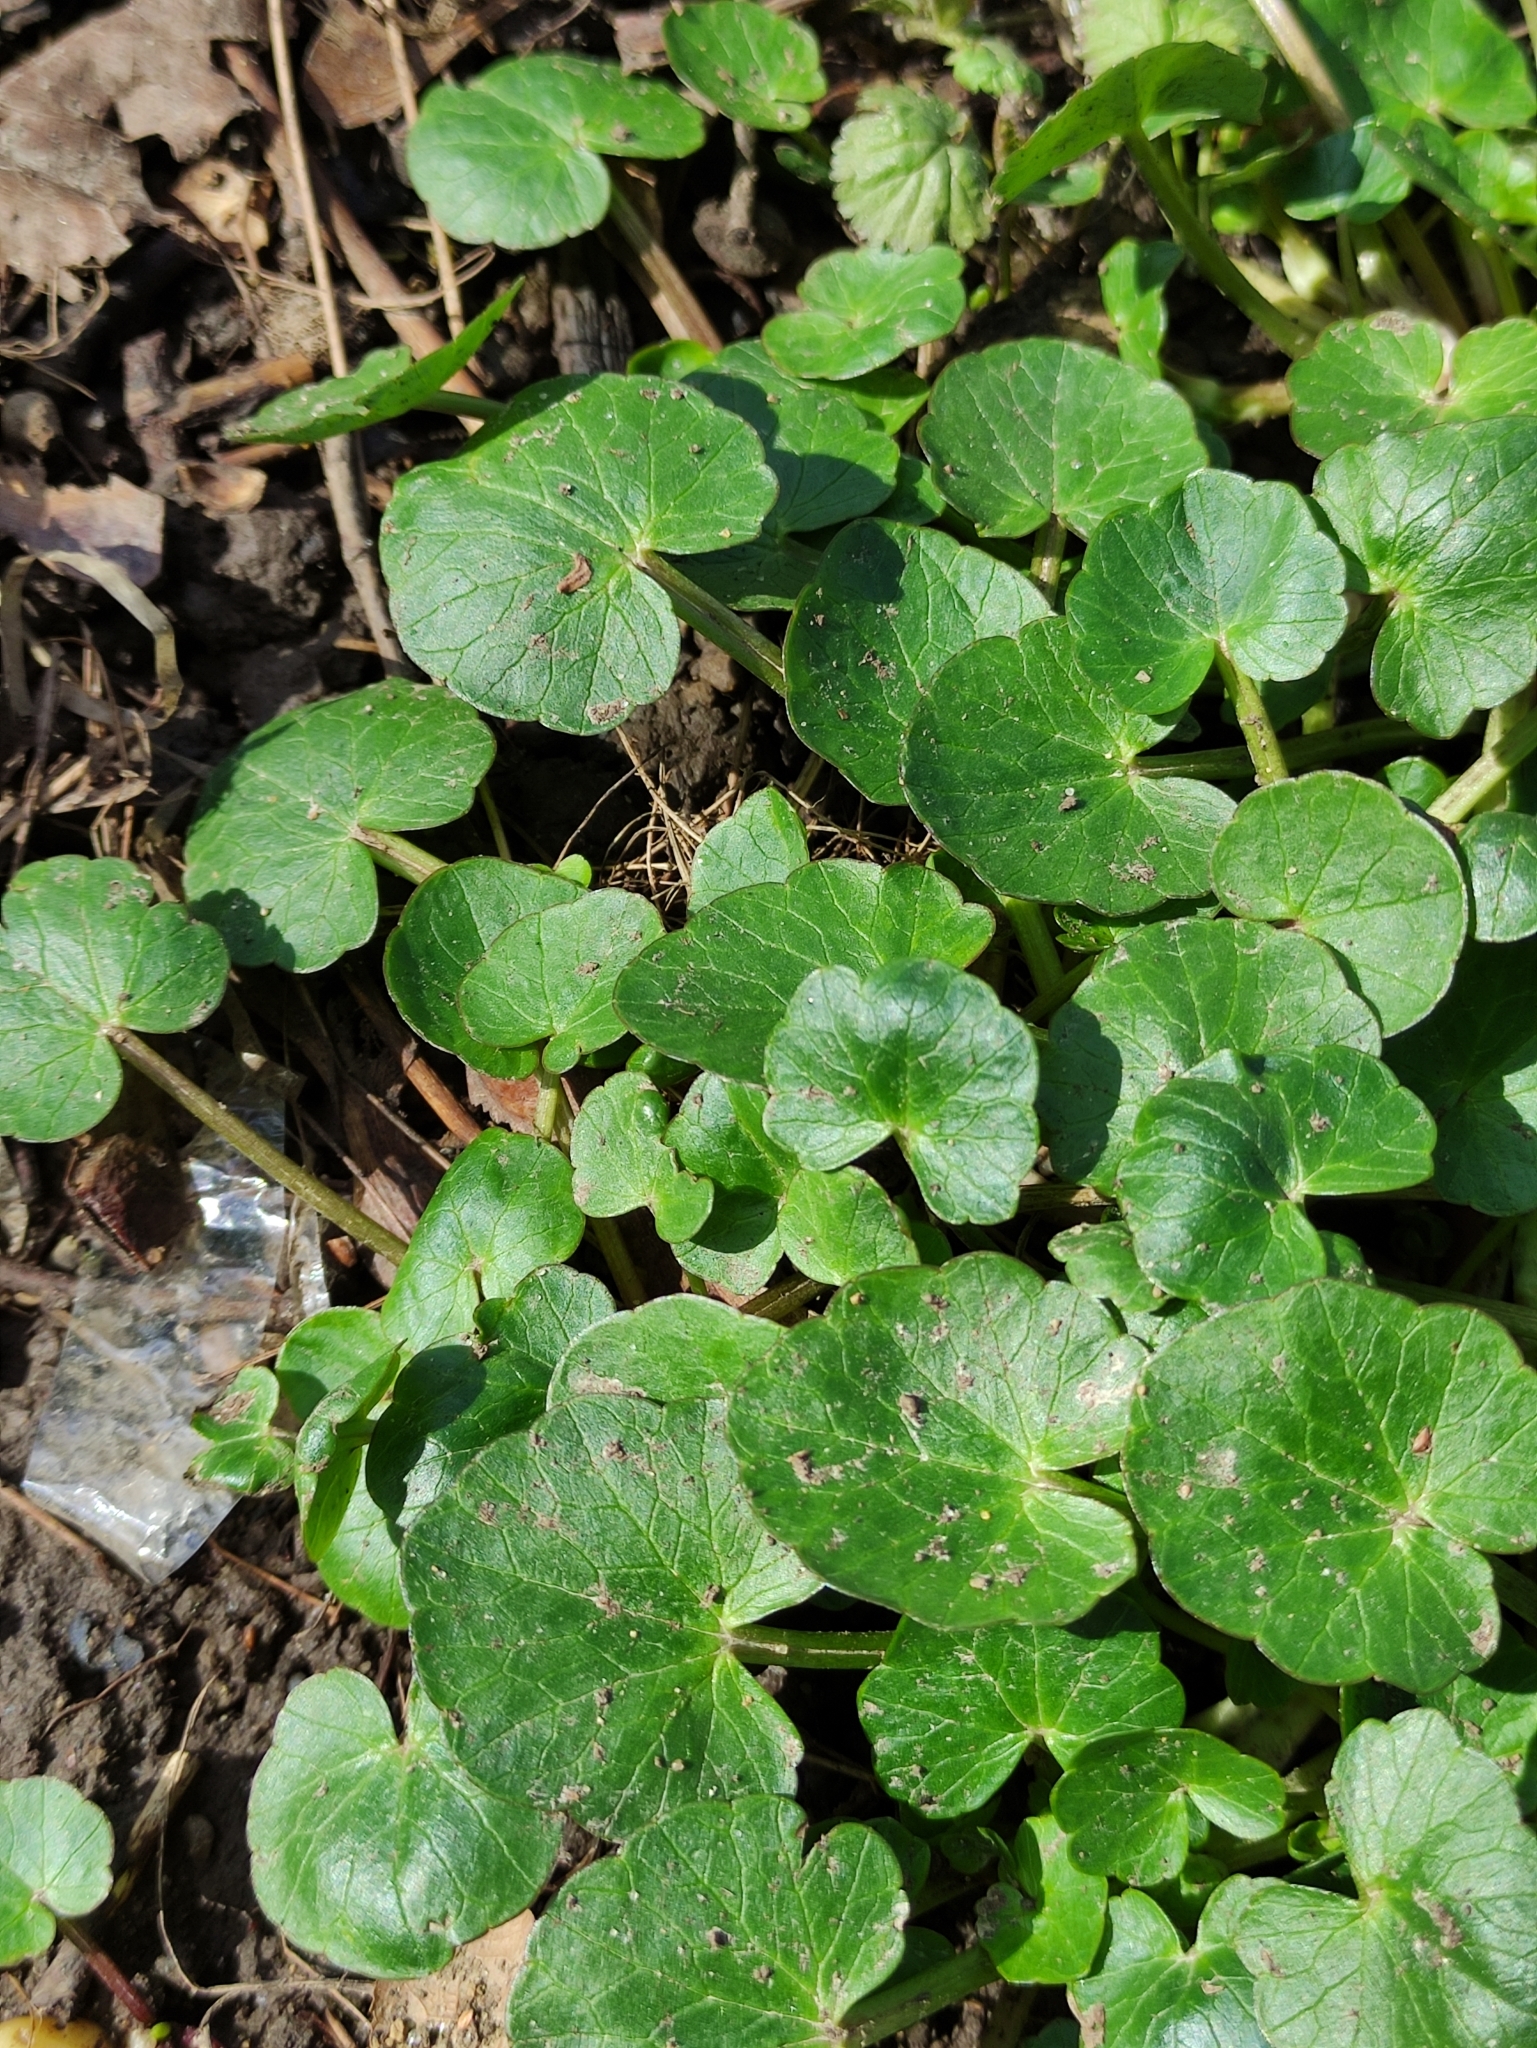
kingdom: Plantae
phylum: Tracheophyta
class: Magnoliopsida
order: Ranunculales
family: Ranunculaceae
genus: Ficaria
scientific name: Ficaria verna
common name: Lesser celandine
